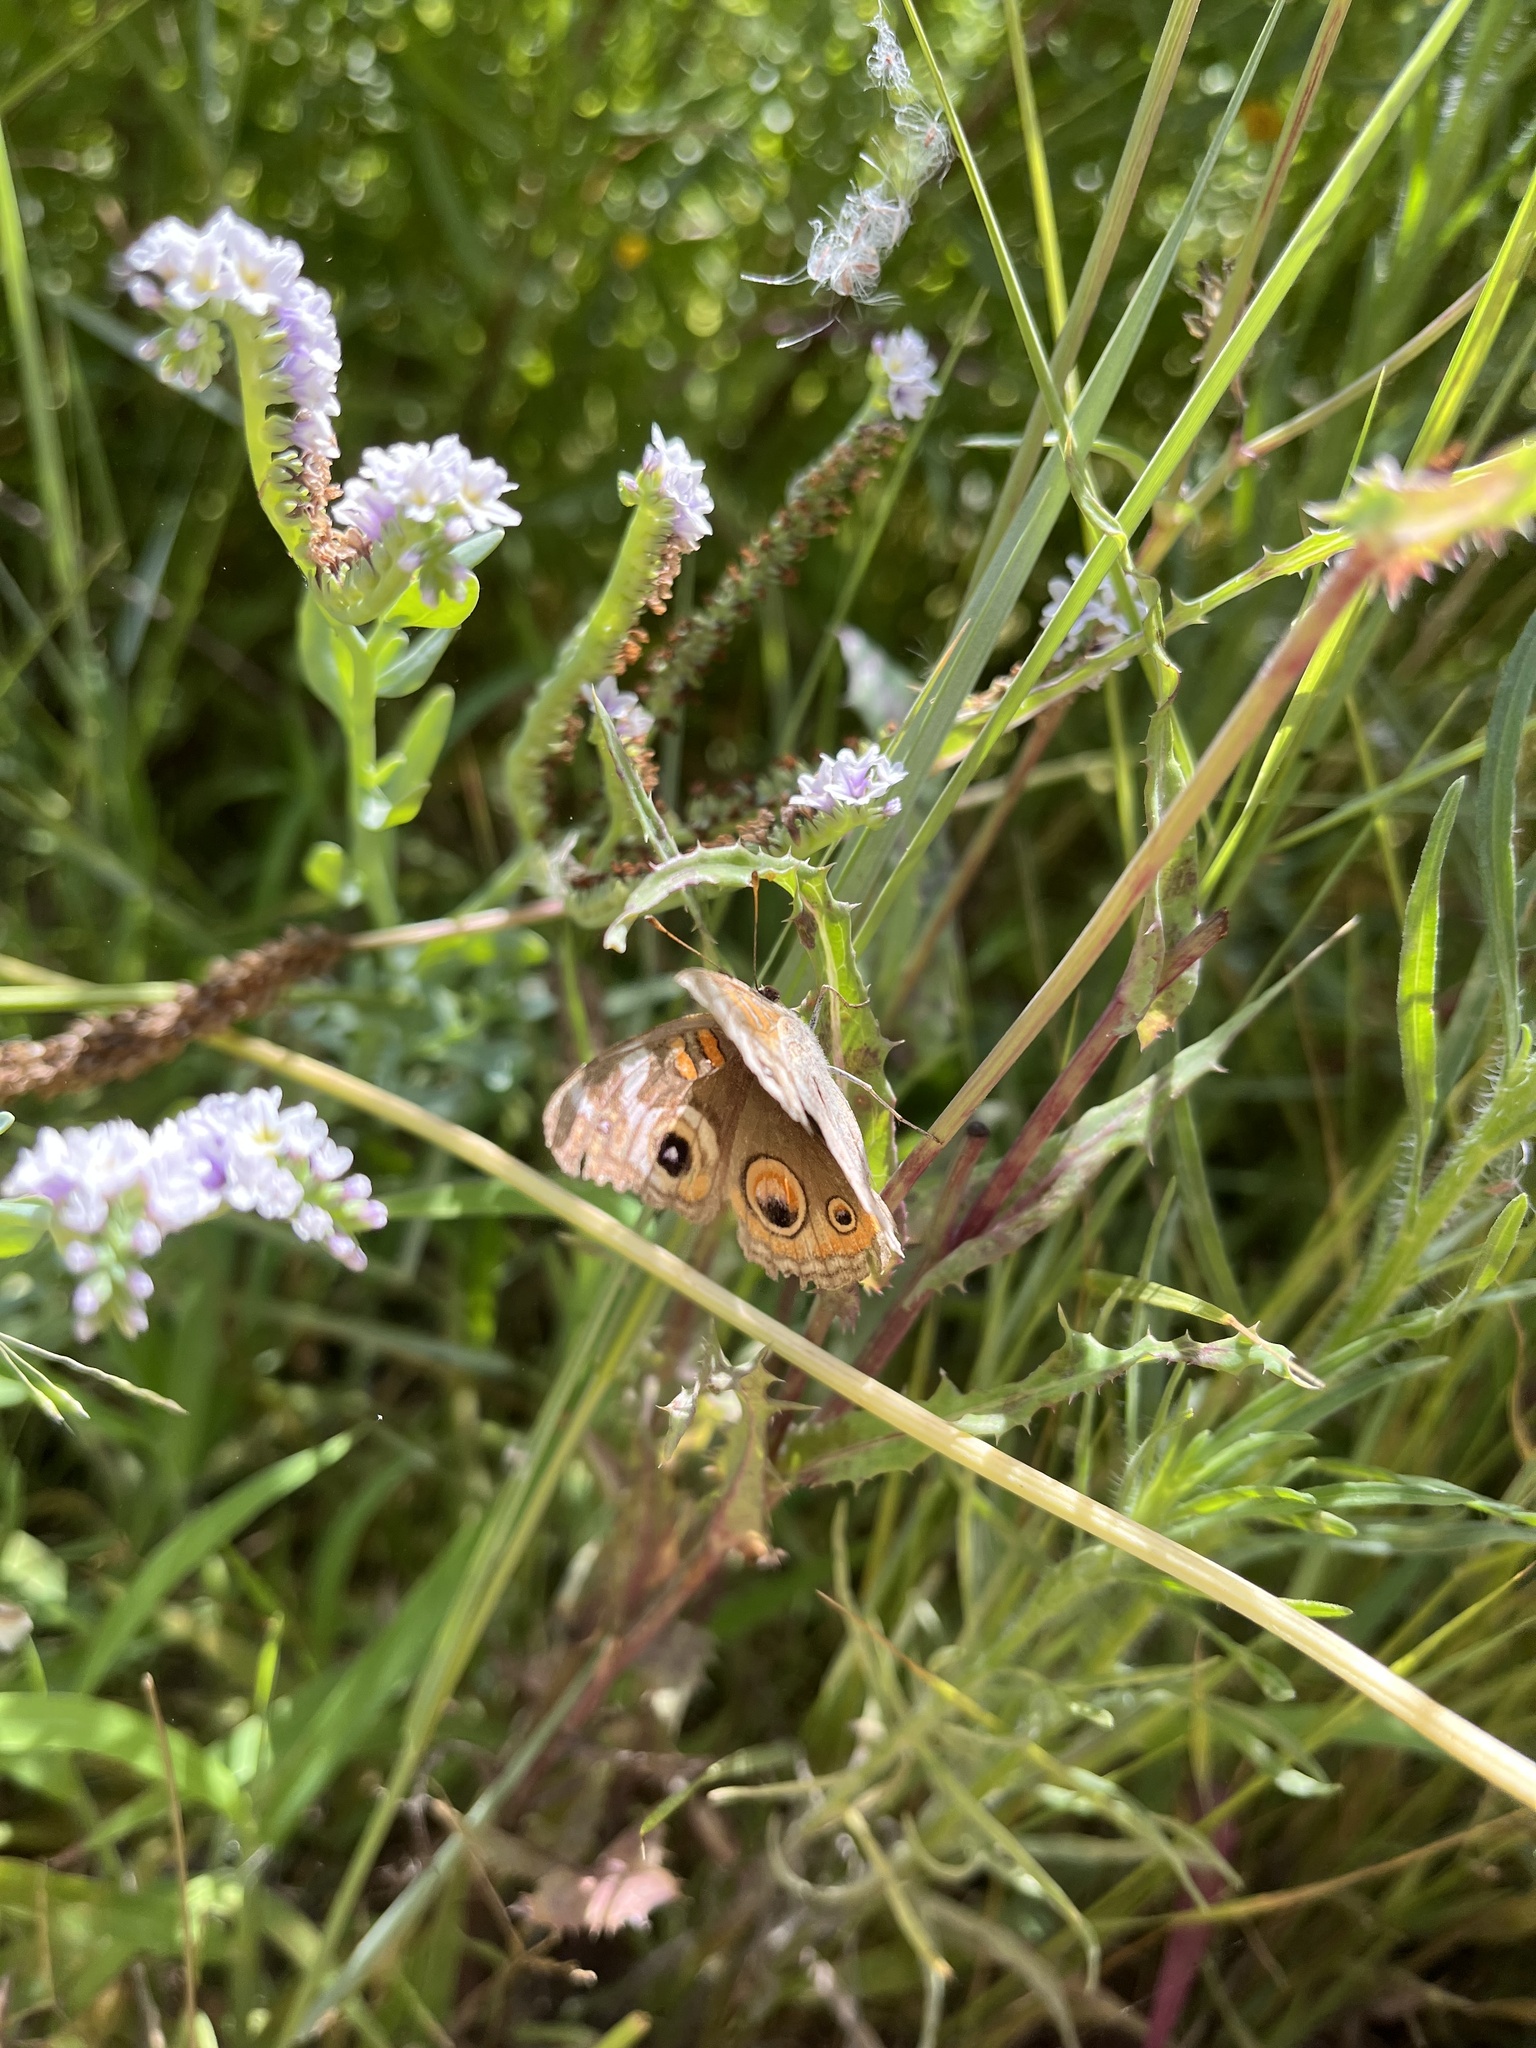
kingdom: Animalia
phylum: Arthropoda
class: Insecta
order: Lepidoptera
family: Nymphalidae
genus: Junonia
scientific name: Junonia grisea
